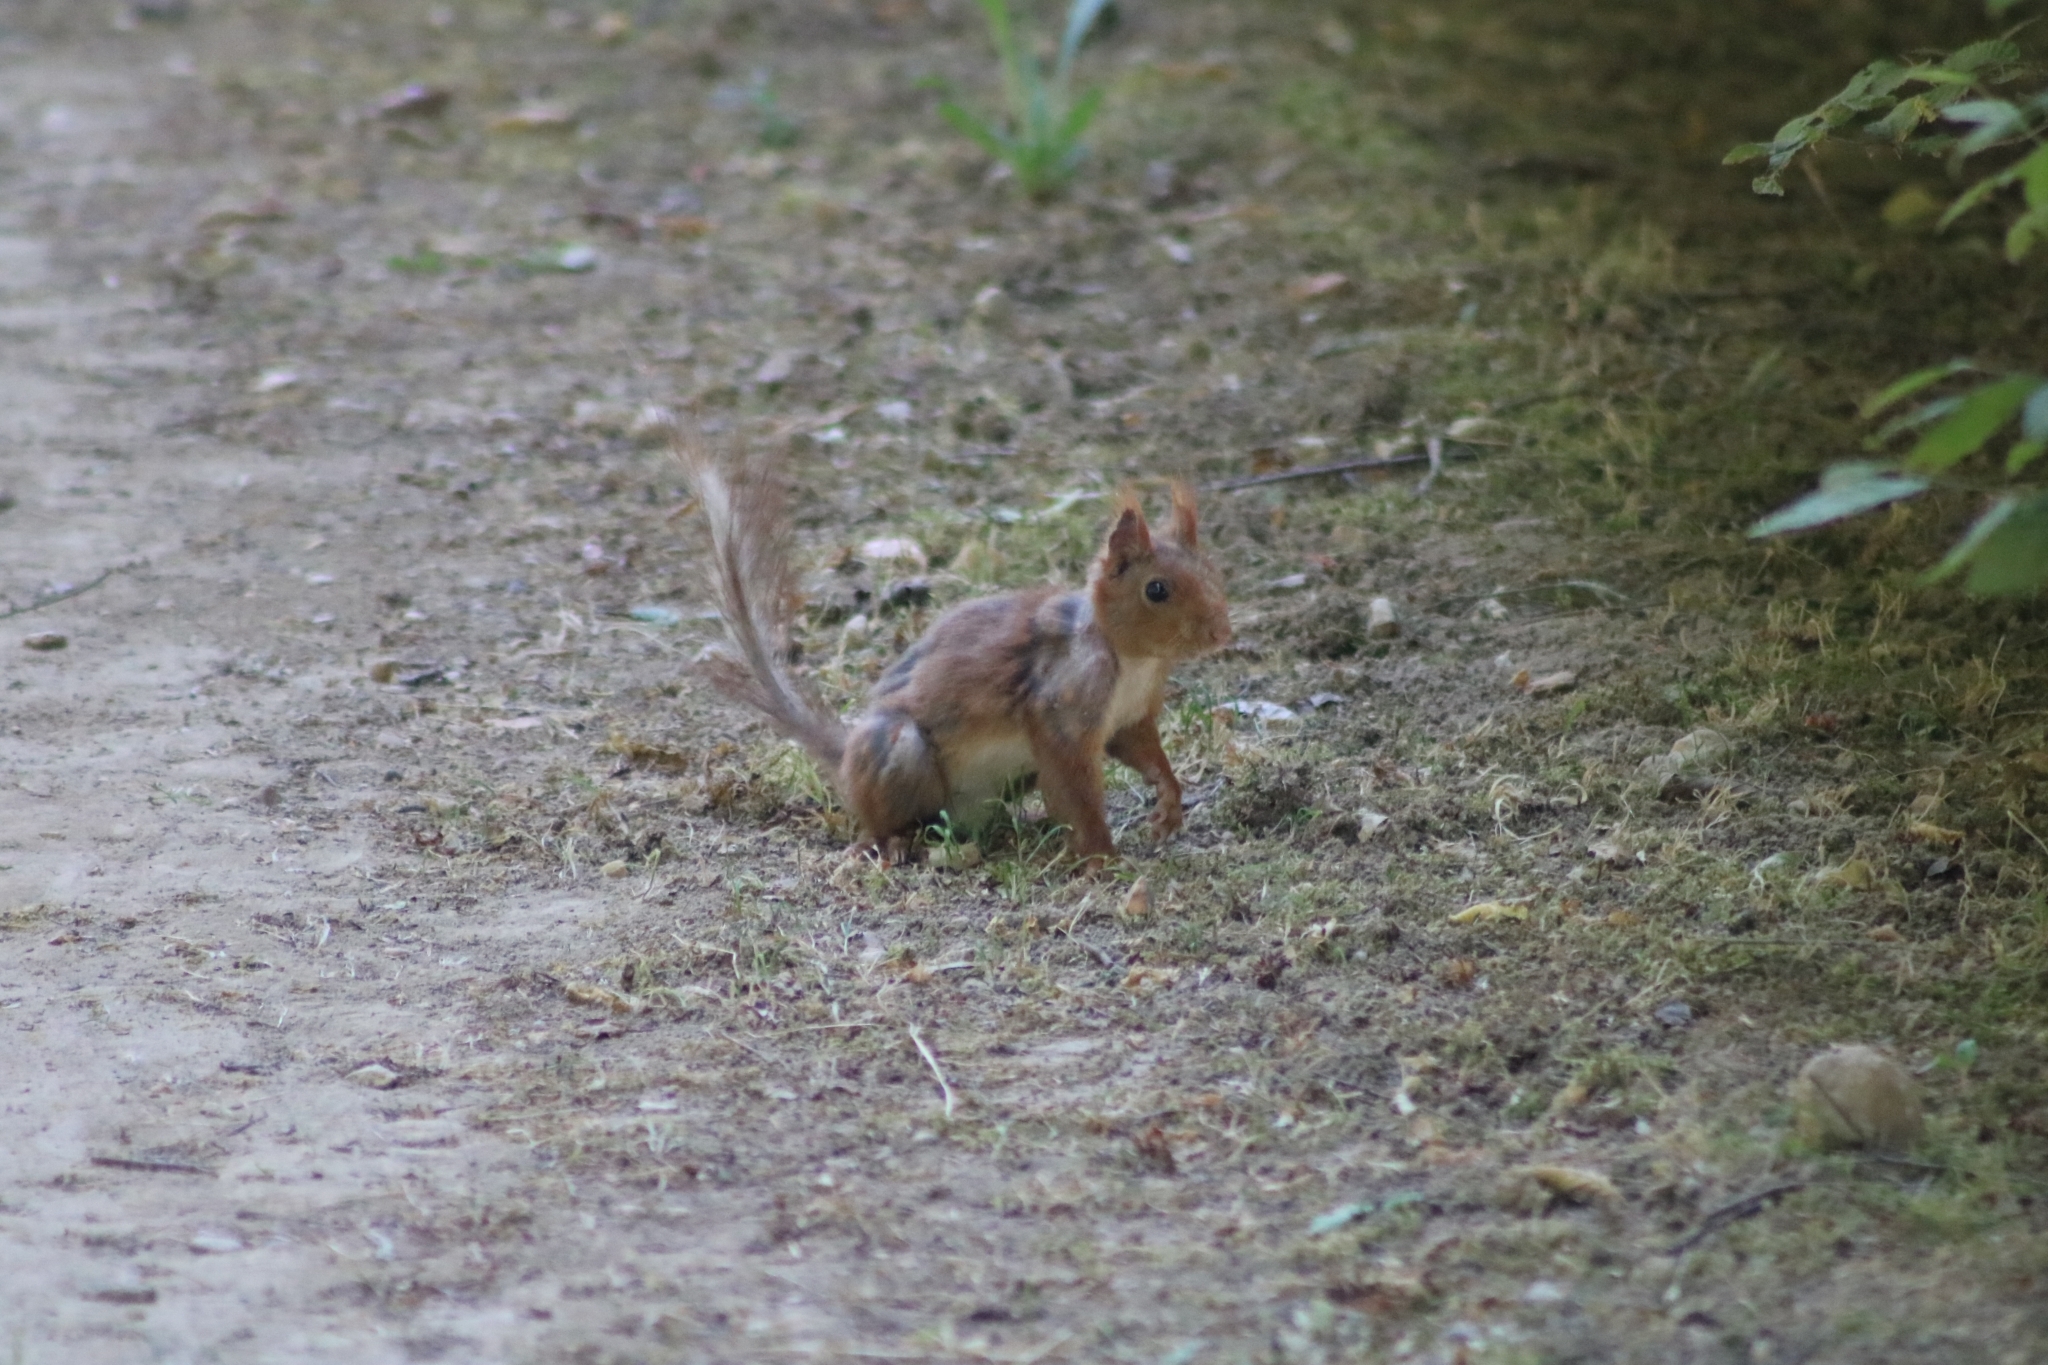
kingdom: Animalia
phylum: Chordata
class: Mammalia
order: Rodentia
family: Sciuridae
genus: Sciurus
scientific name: Sciurus vulgaris
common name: Eurasian red squirrel
